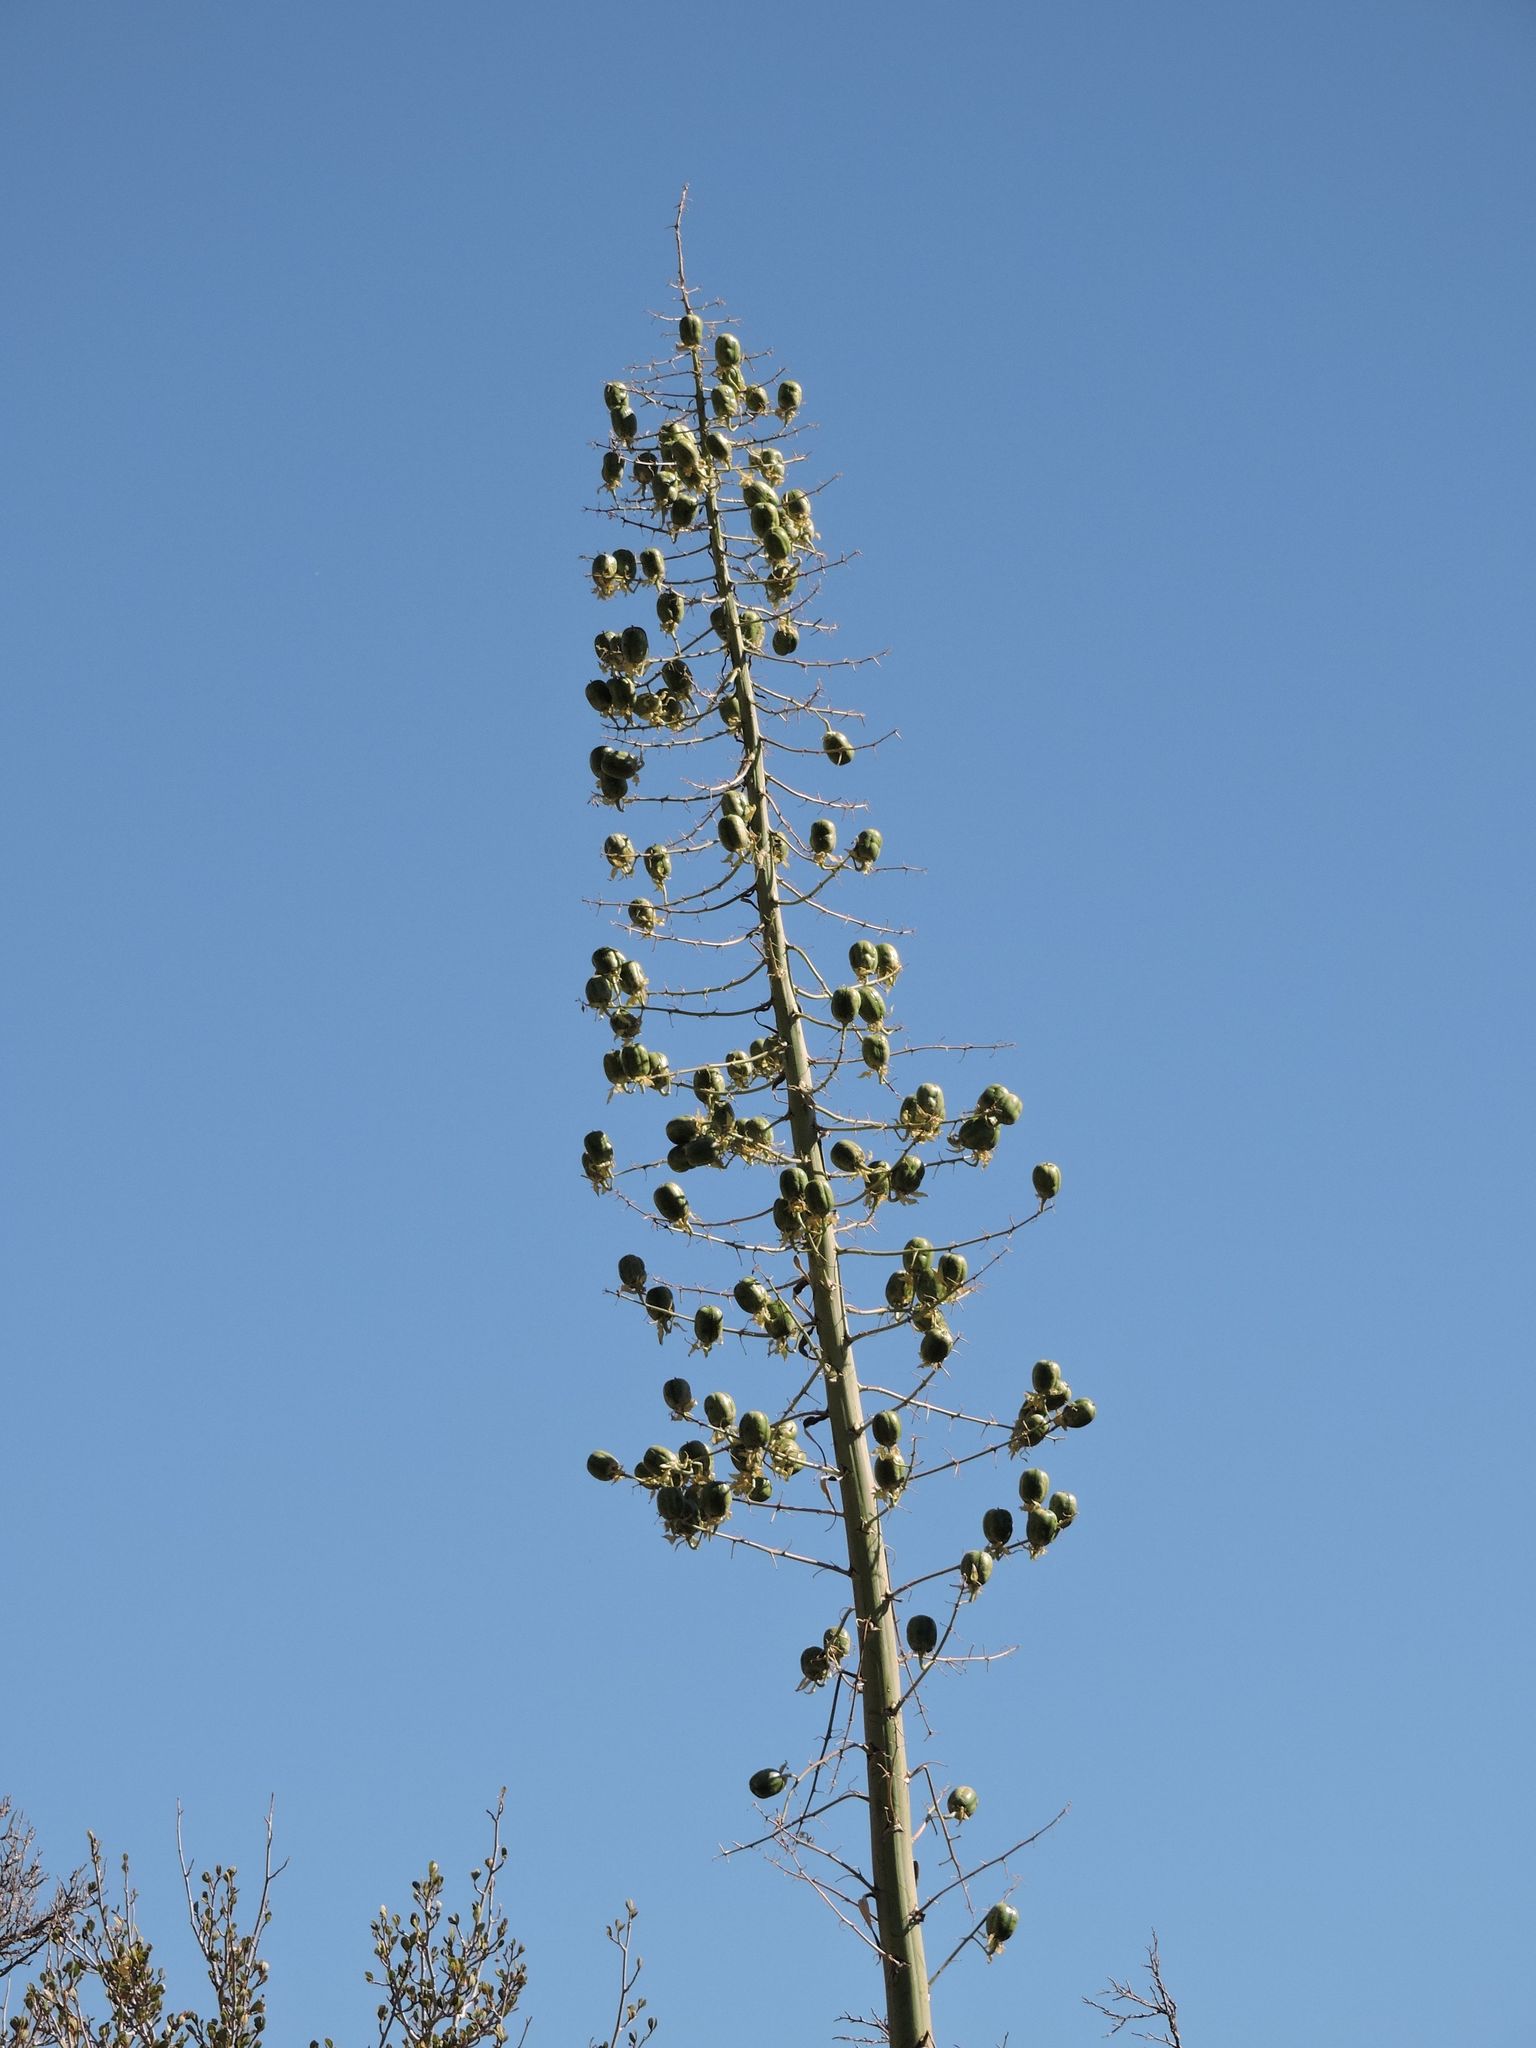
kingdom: Plantae
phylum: Tracheophyta
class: Liliopsida
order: Asparagales
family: Asparagaceae
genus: Hesperoyucca
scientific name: Hesperoyucca whipplei
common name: Our lord's-candle
